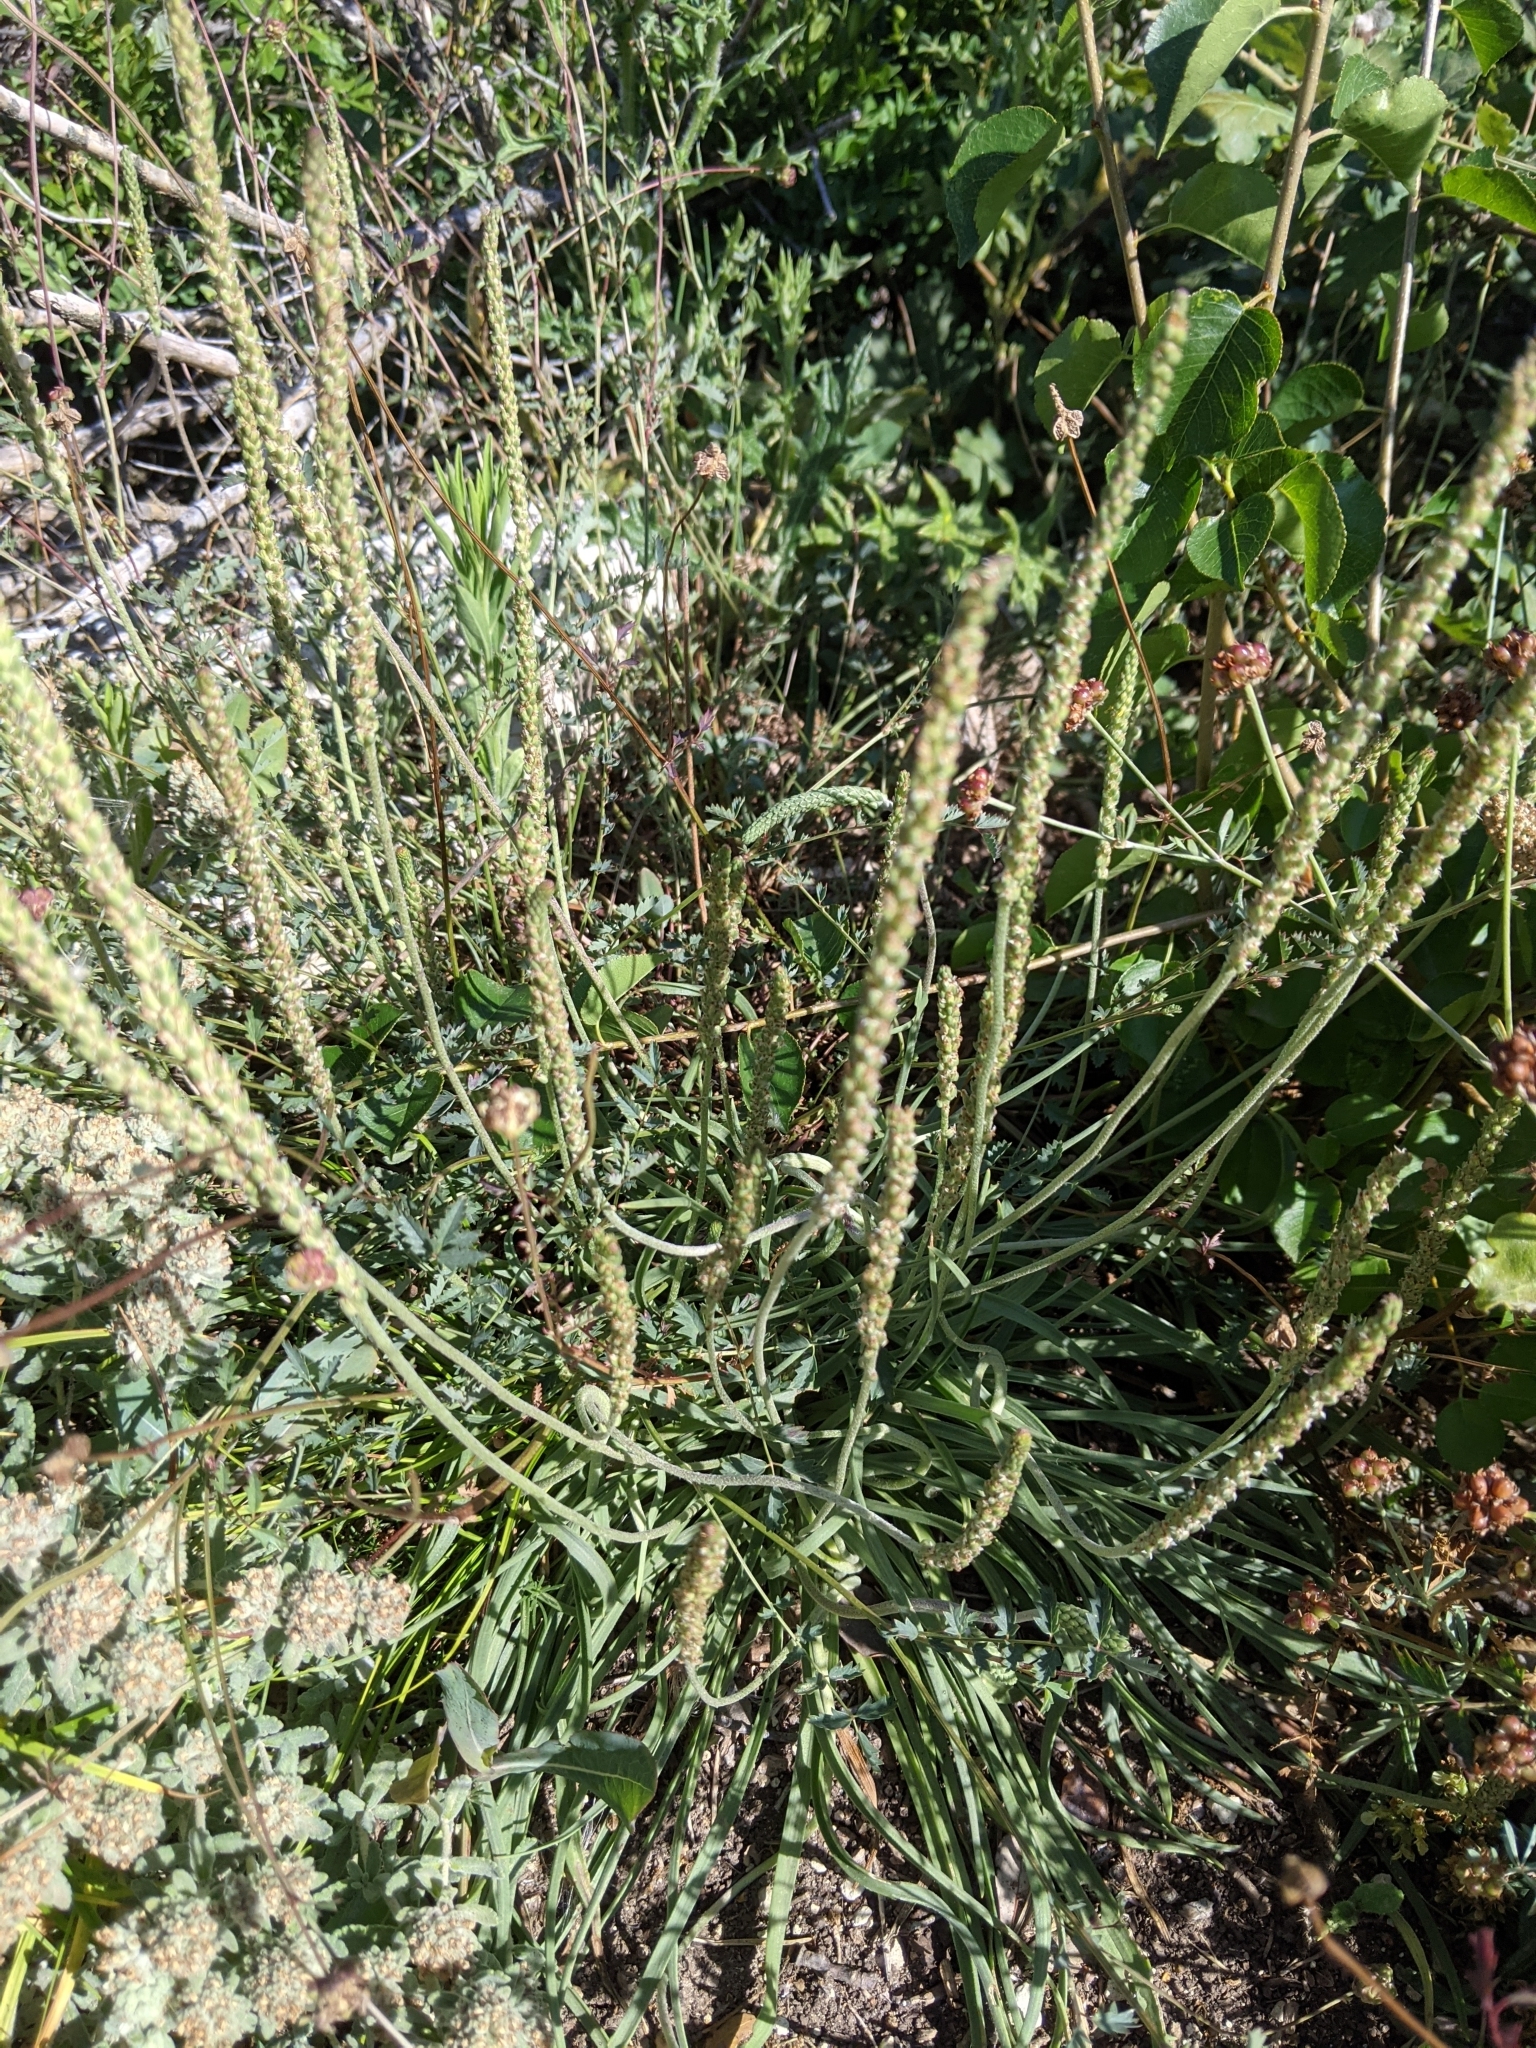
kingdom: Plantae
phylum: Tracheophyta
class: Magnoliopsida
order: Lamiales
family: Plantaginaceae
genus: Plantago
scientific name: Plantago maritima
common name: Sea plantain
